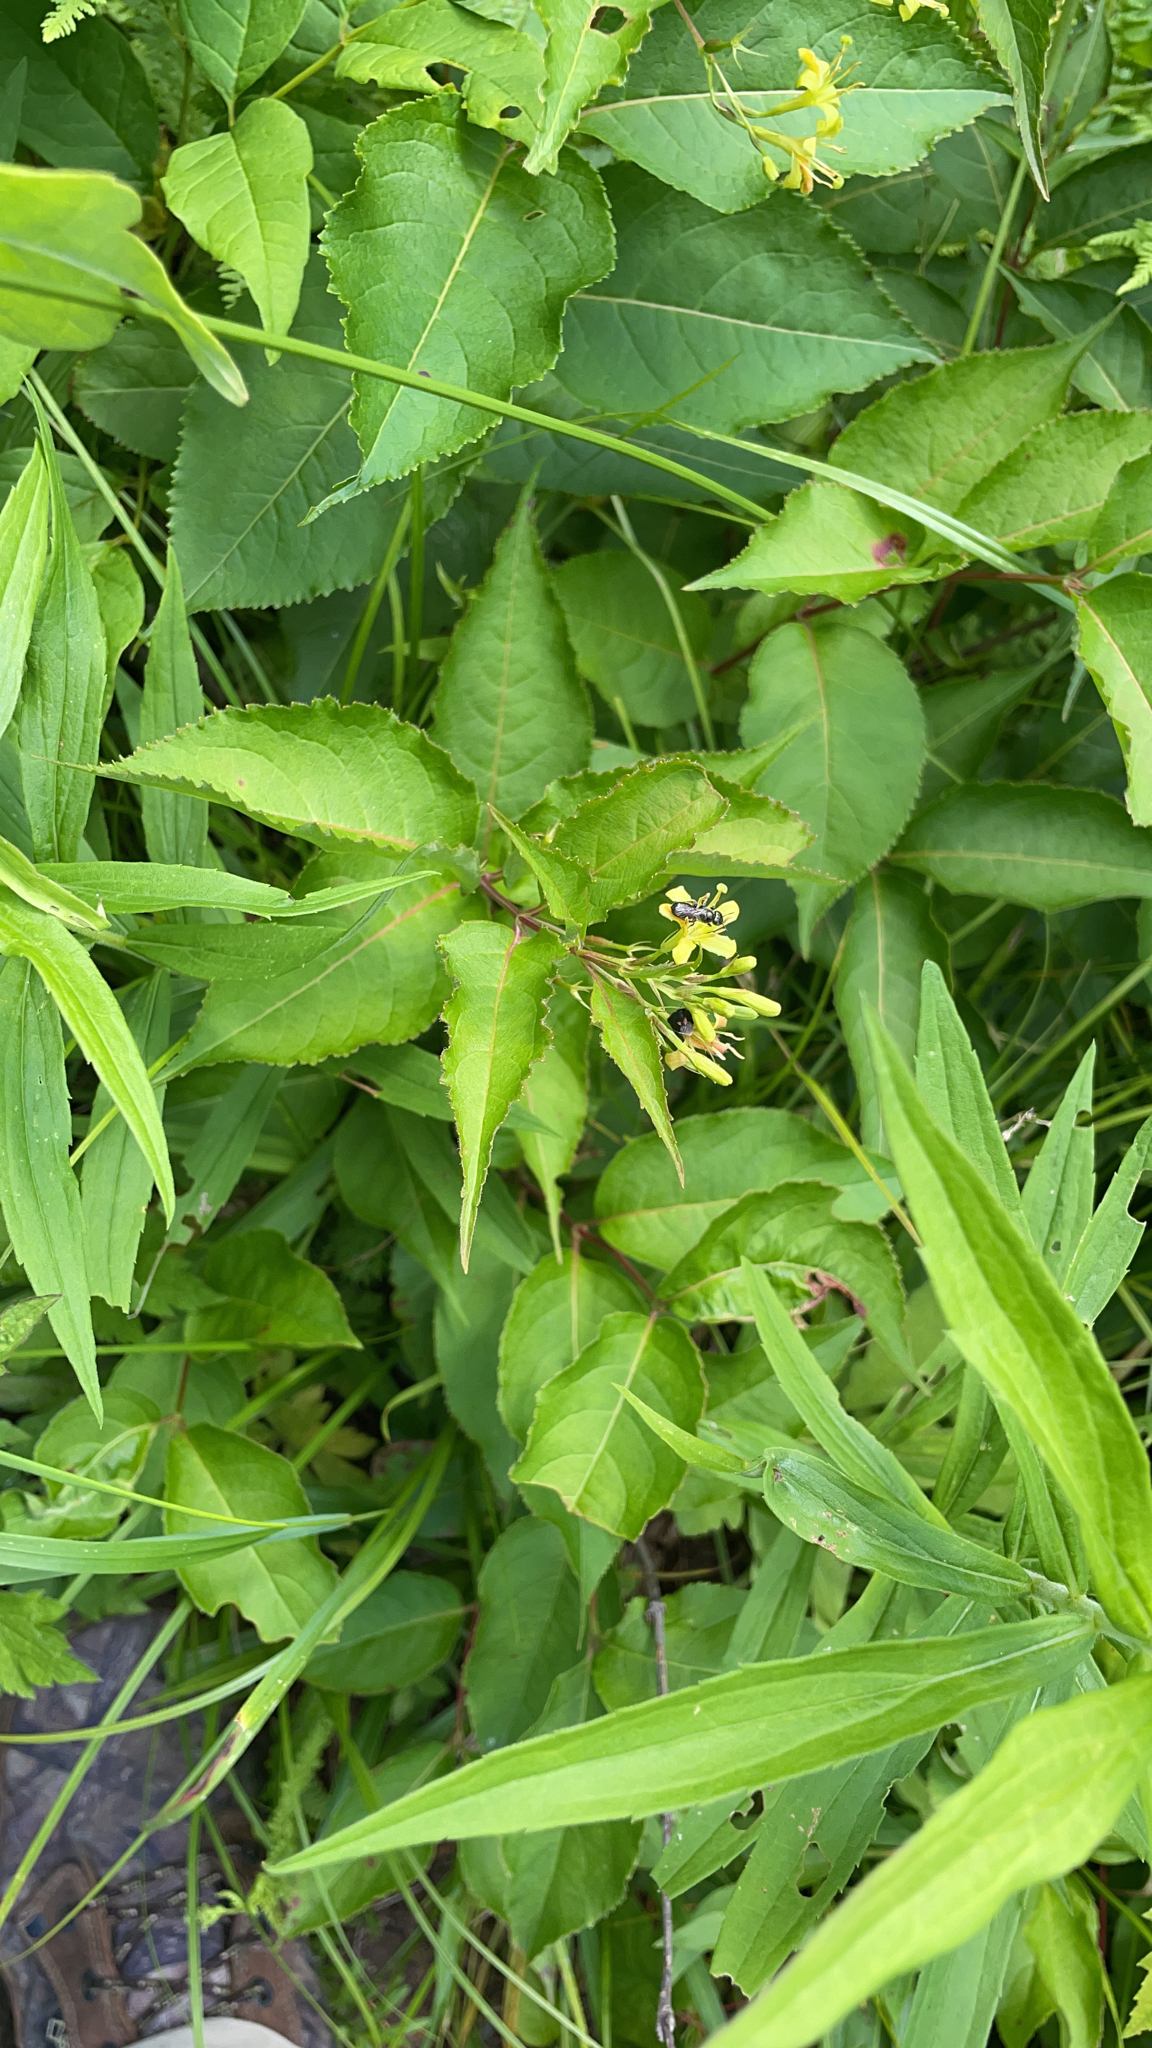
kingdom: Plantae
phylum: Tracheophyta
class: Magnoliopsida
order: Dipsacales
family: Caprifoliaceae
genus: Diervilla
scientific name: Diervilla lonicera
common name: Bush-honeysuckle
